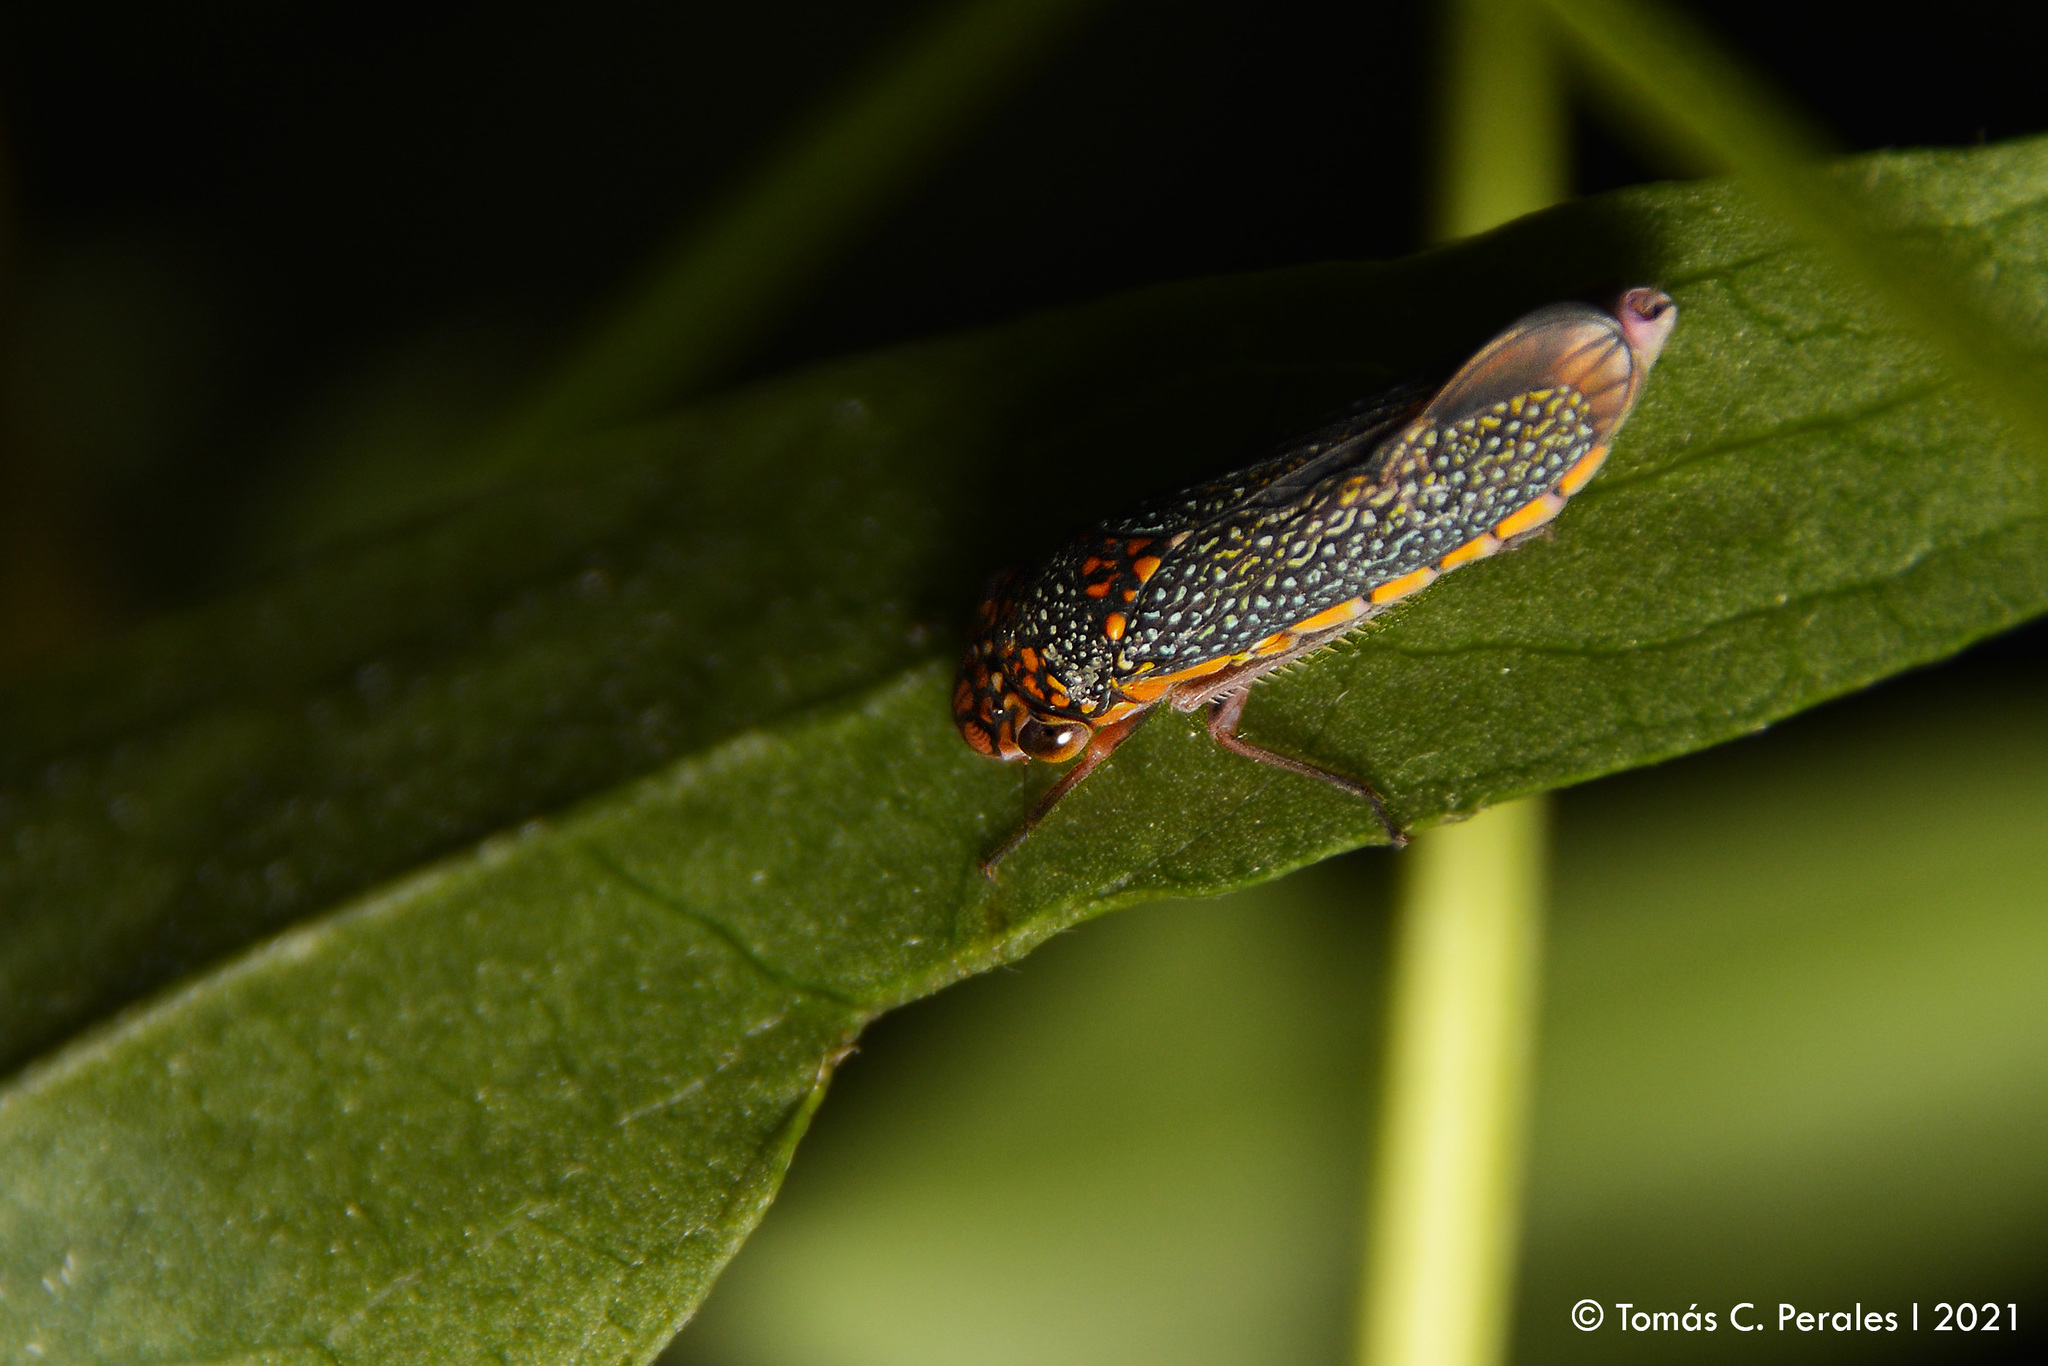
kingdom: Animalia
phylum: Arthropoda
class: Insecta
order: Hemiptera
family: Cicadellidae
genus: Molomea
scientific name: Molomea lineiceps
